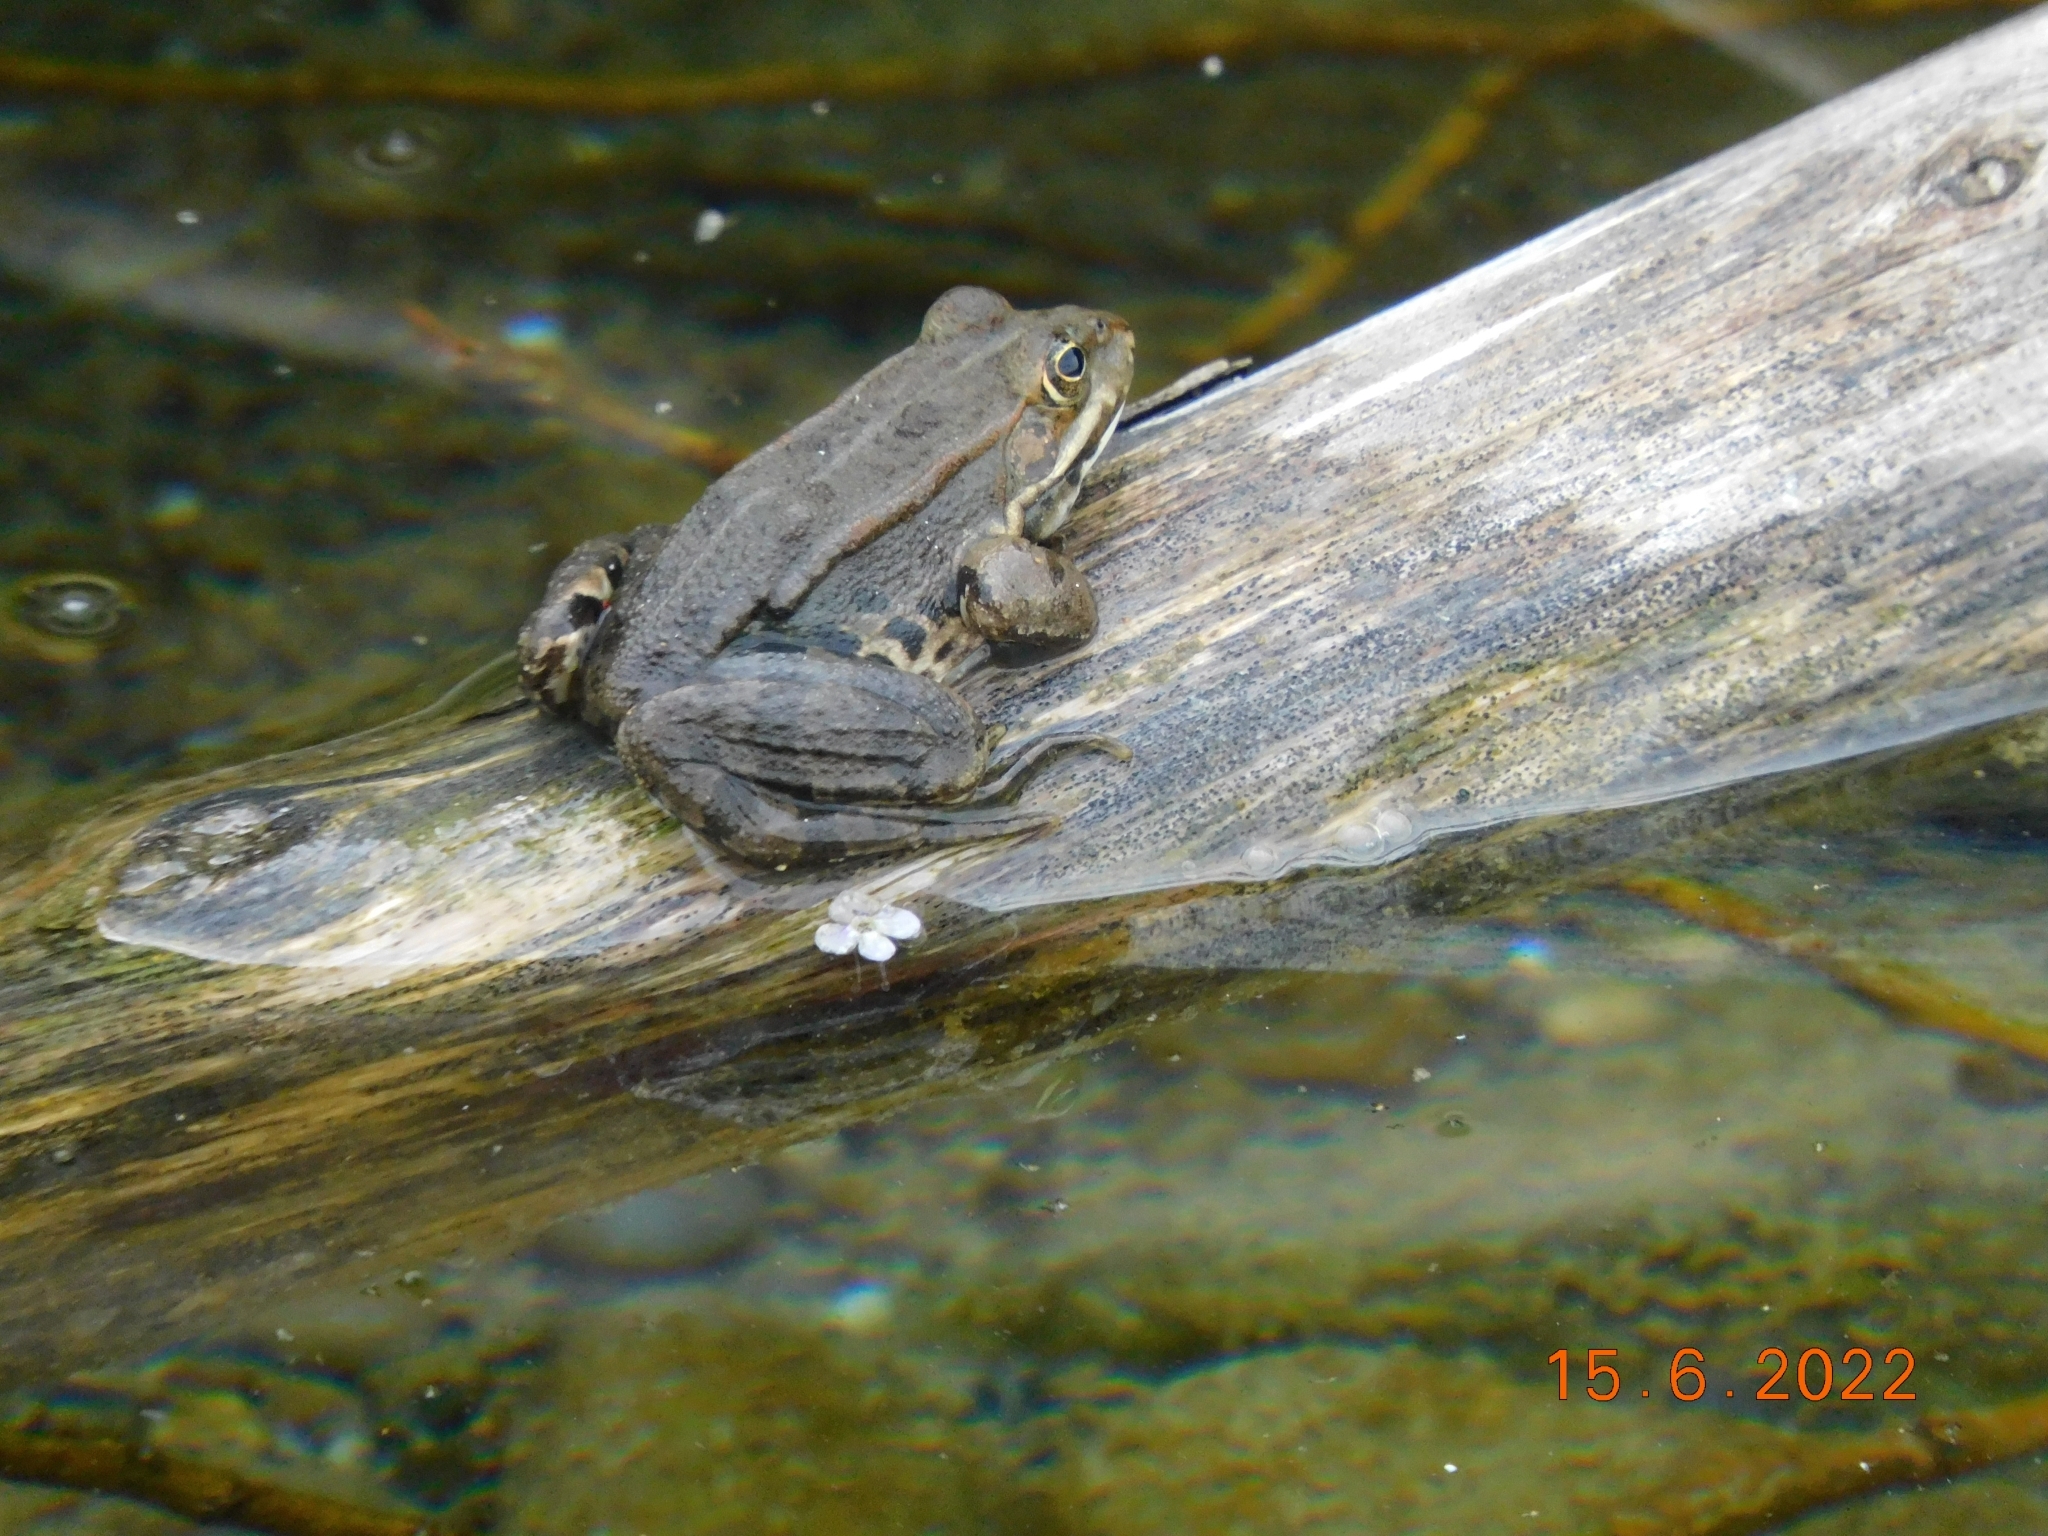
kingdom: Animalia
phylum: Chordata
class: Amphibia
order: Anura
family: Ranidae
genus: Pelophylax
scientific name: Pelophylax
